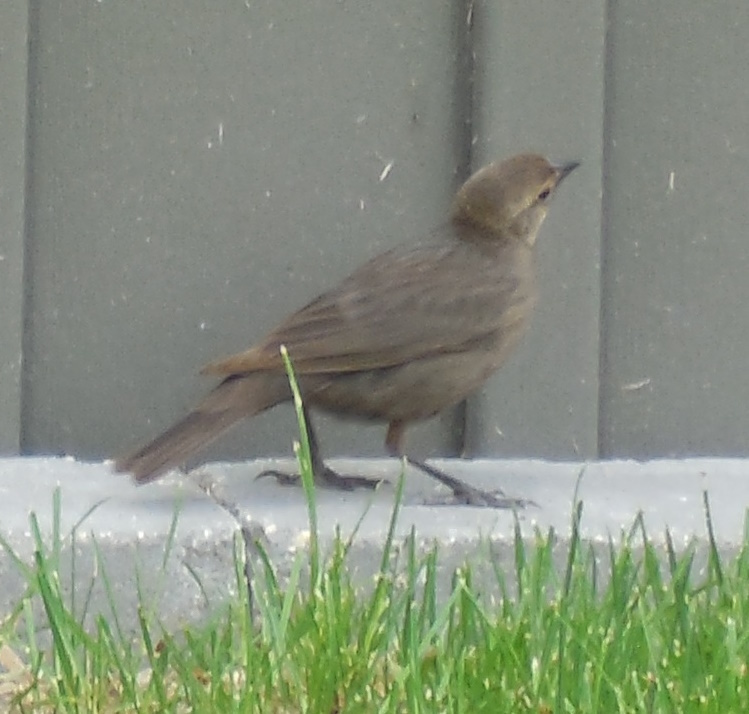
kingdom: Animalia
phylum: Chordata
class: Aves
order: Passeriformes
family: Icteridae
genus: Molothrus
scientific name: Molothrus ater
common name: Brown-headed cowbird
